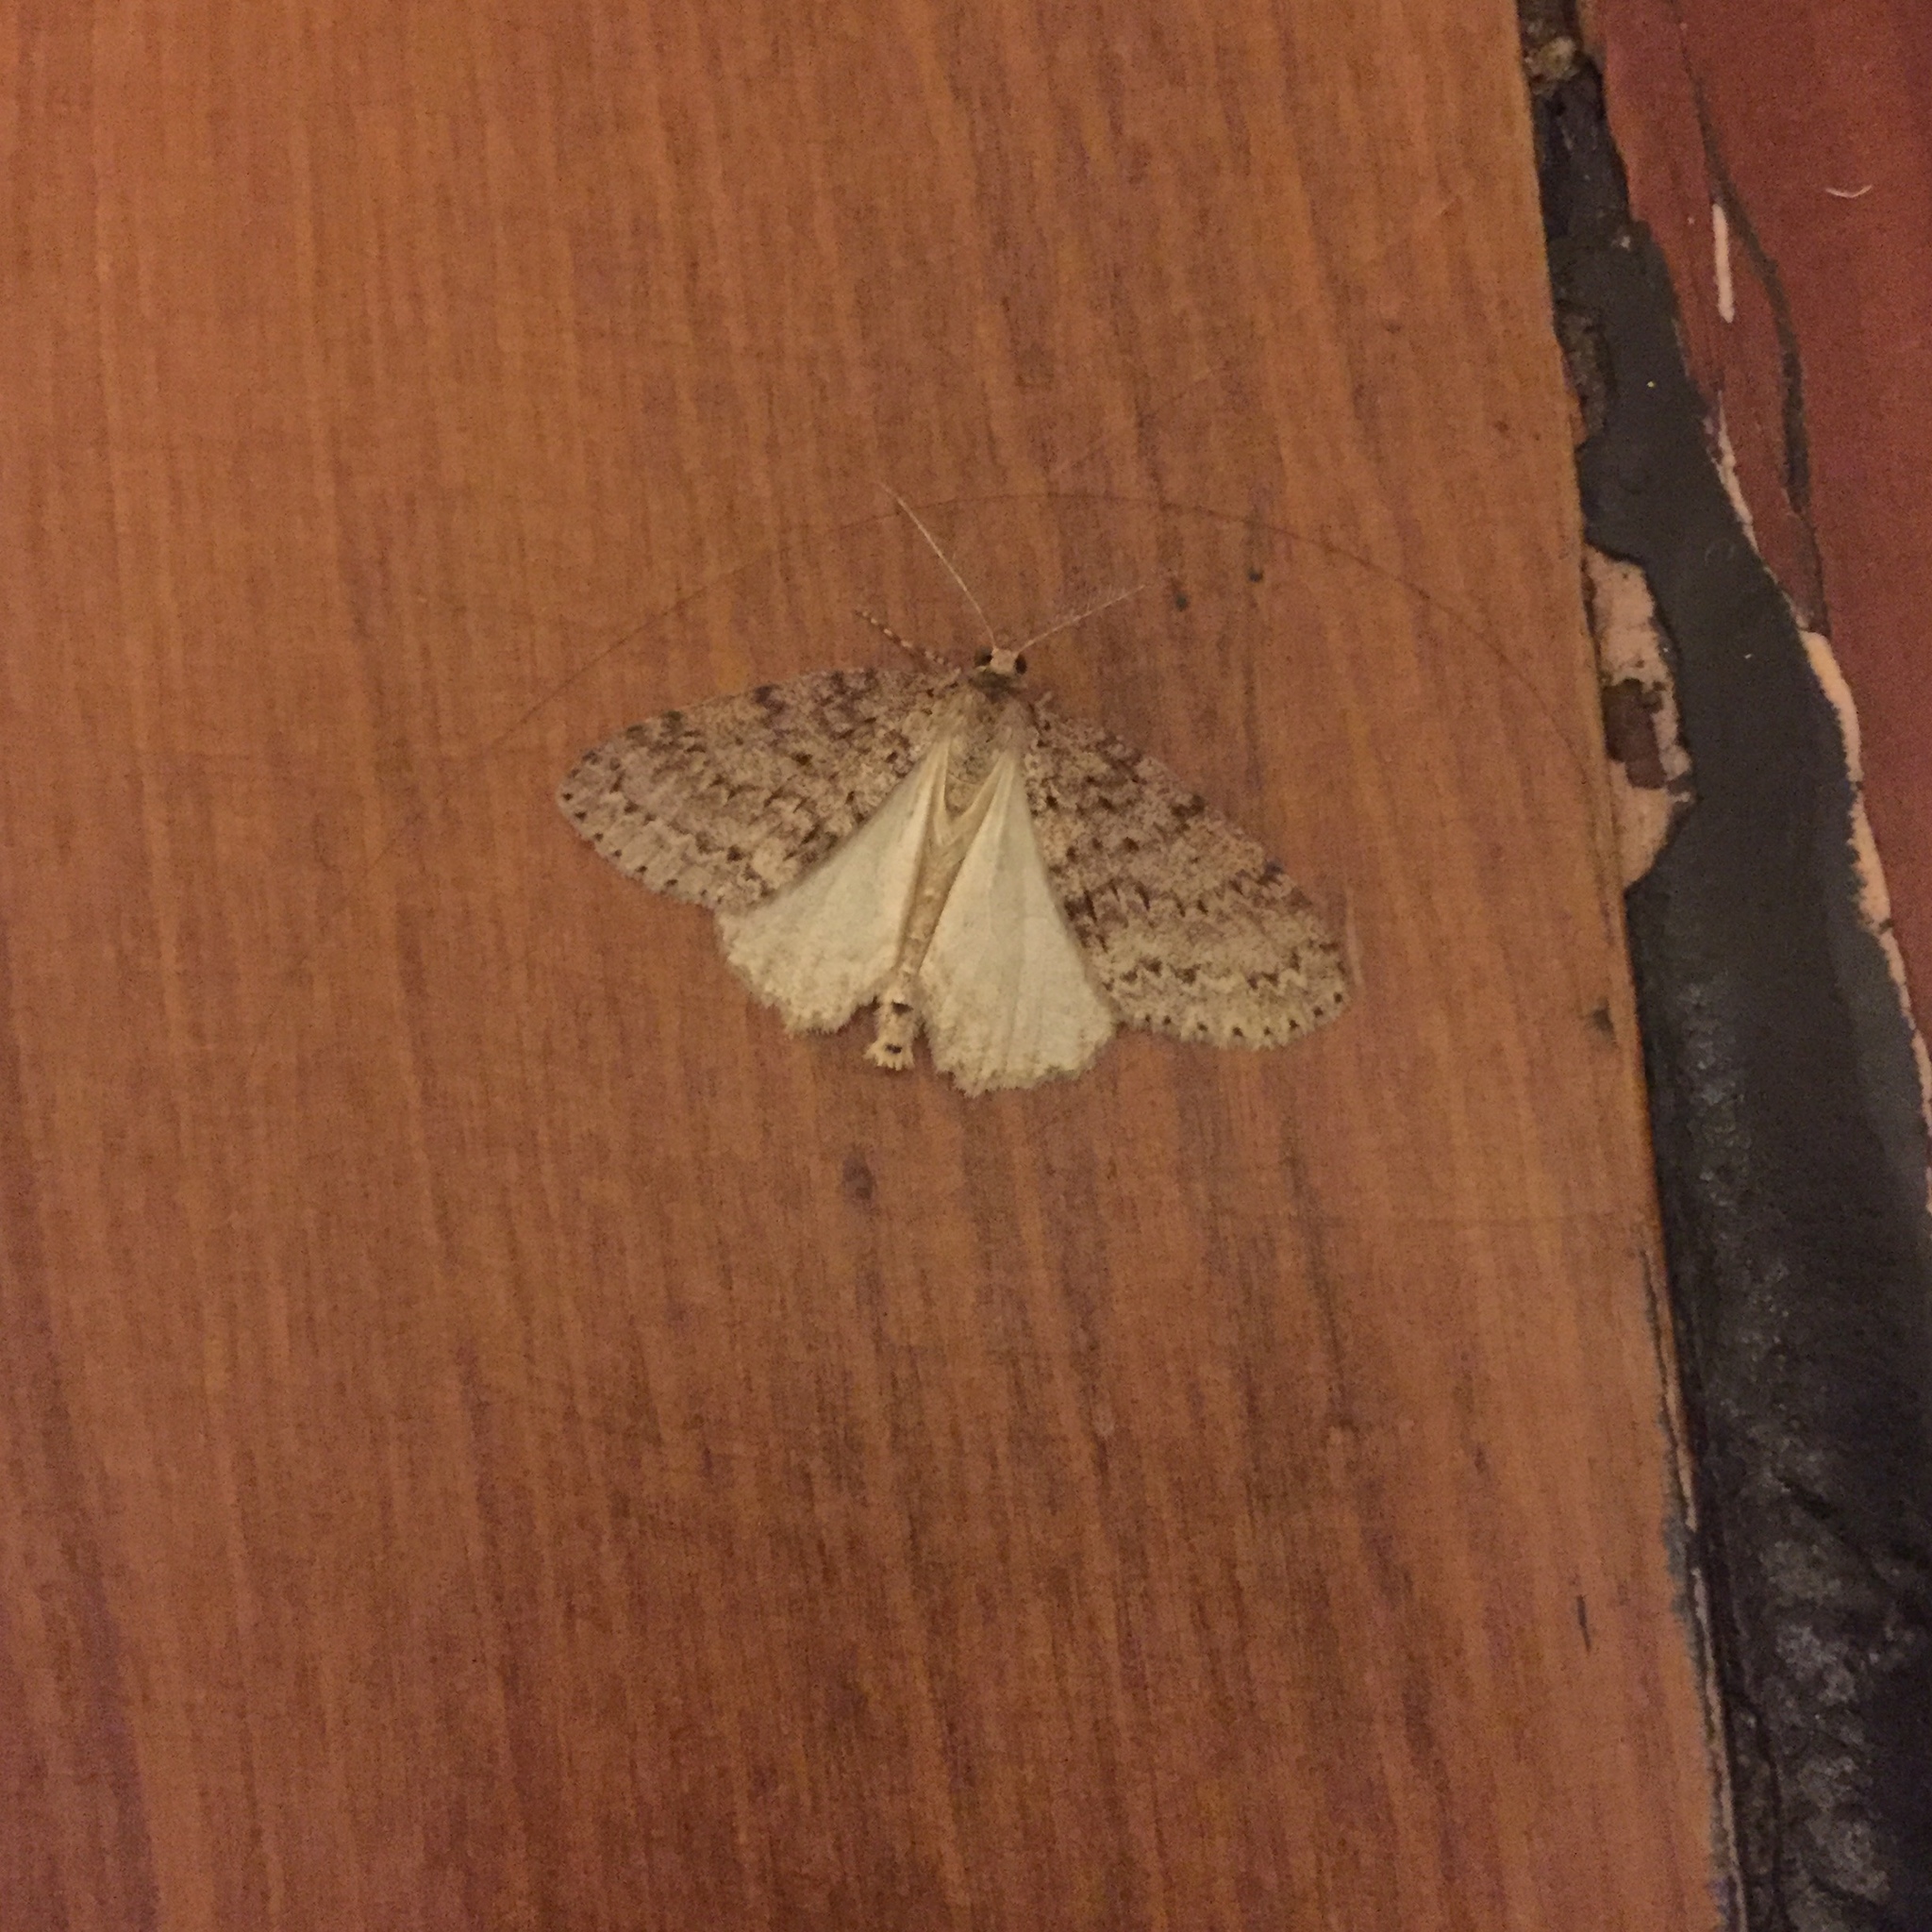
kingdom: Animalia
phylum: Arthropoda
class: Insecta
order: Lepidoptera
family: Geometridae
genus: Pseudocoremia
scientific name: Pseudocoremia fenerata
